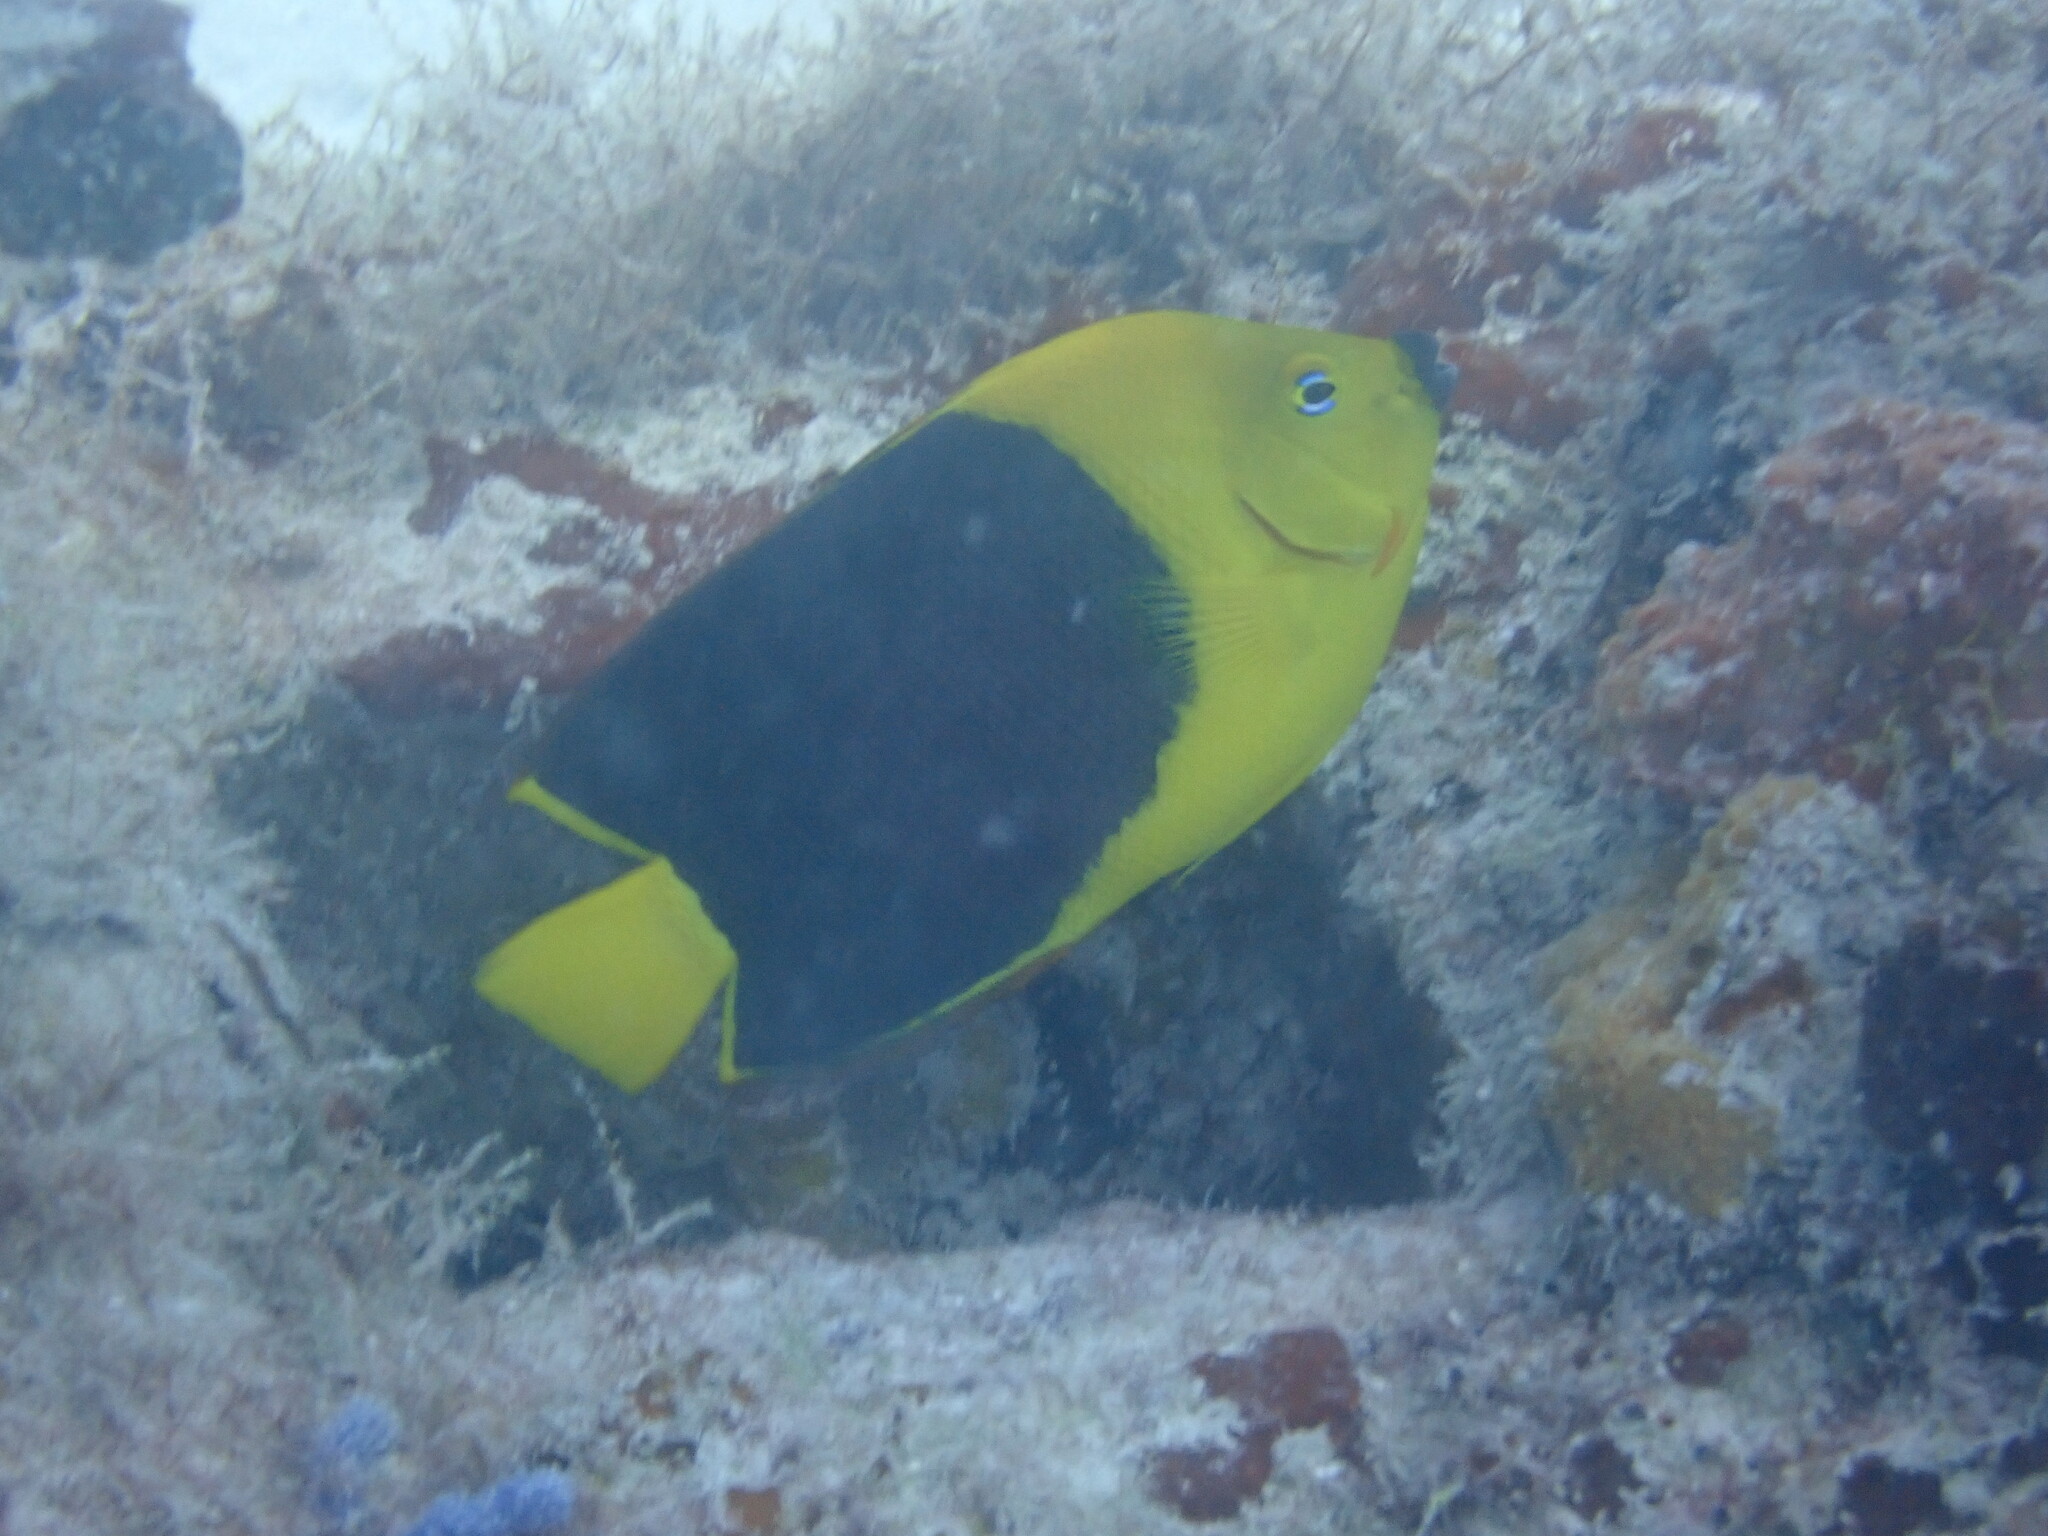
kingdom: Animalia
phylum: Chordata
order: Perciformes
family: Pomacanthidae
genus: Holacanthus
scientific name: Holacanthus tricolor
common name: Rock beauty
